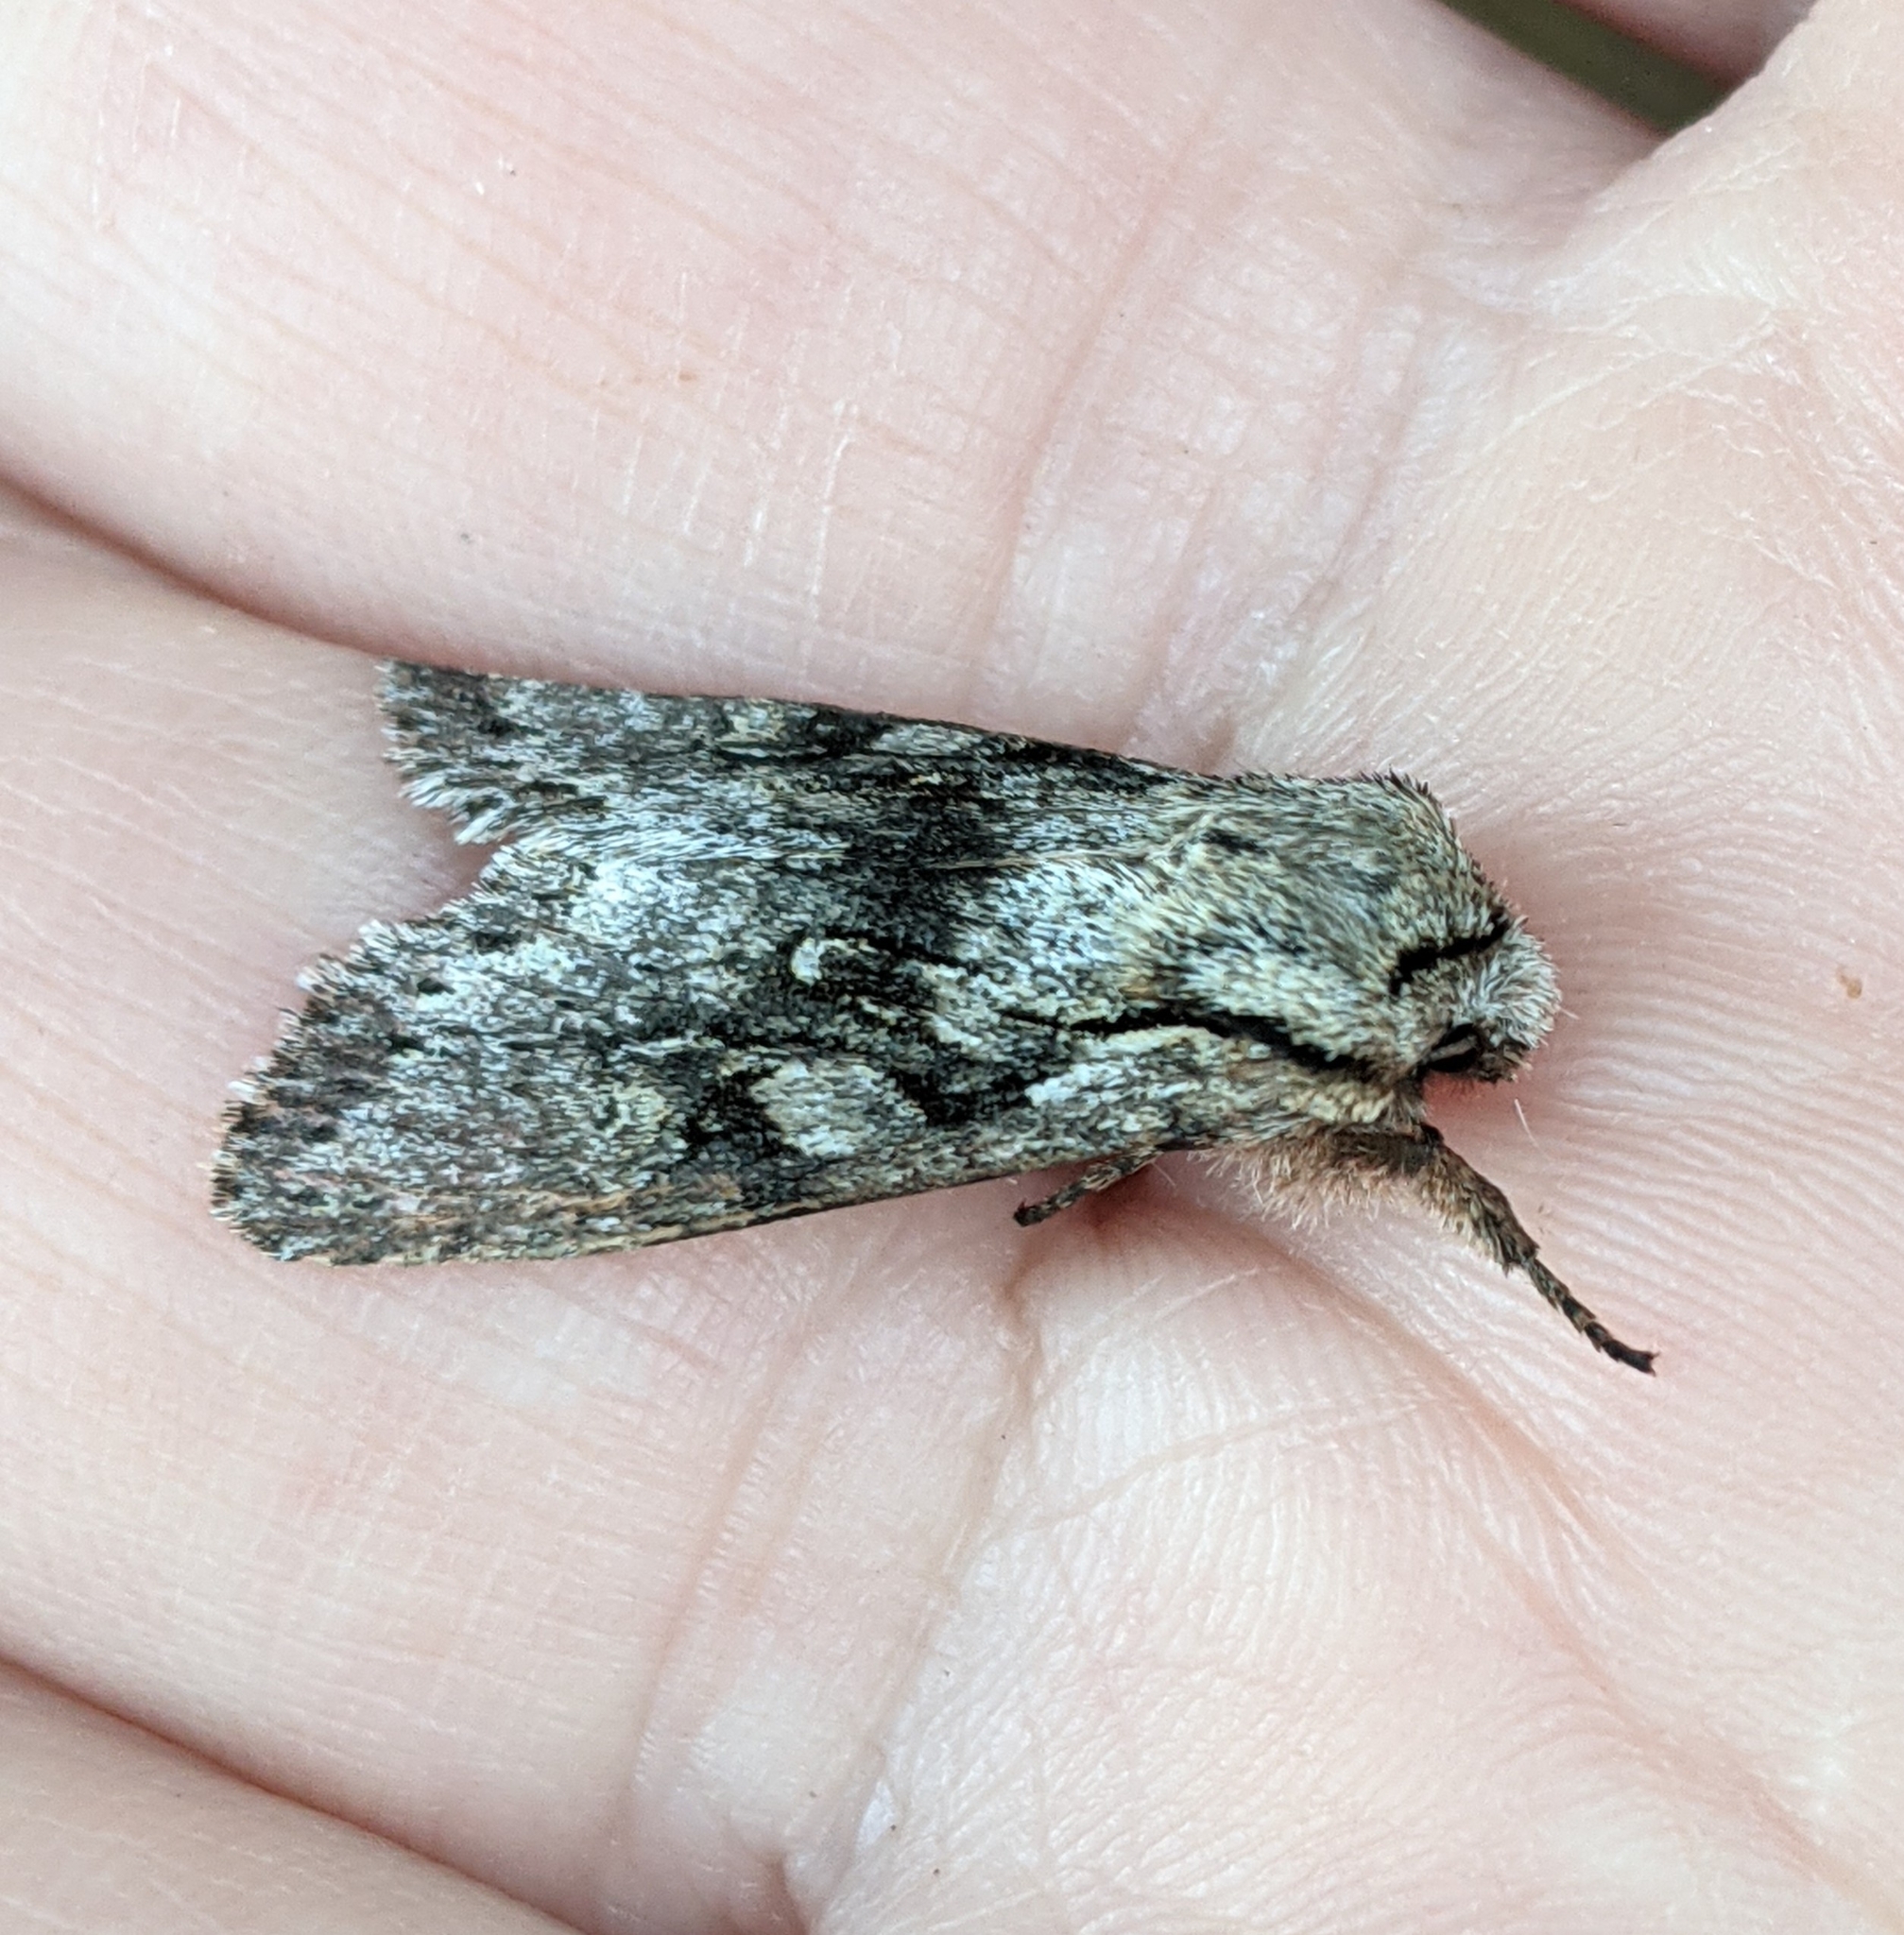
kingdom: Animalia
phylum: Arthropoda
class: Insecta
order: Lepidoptera
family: Noctuidae
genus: Egira
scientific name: Egira simplex
